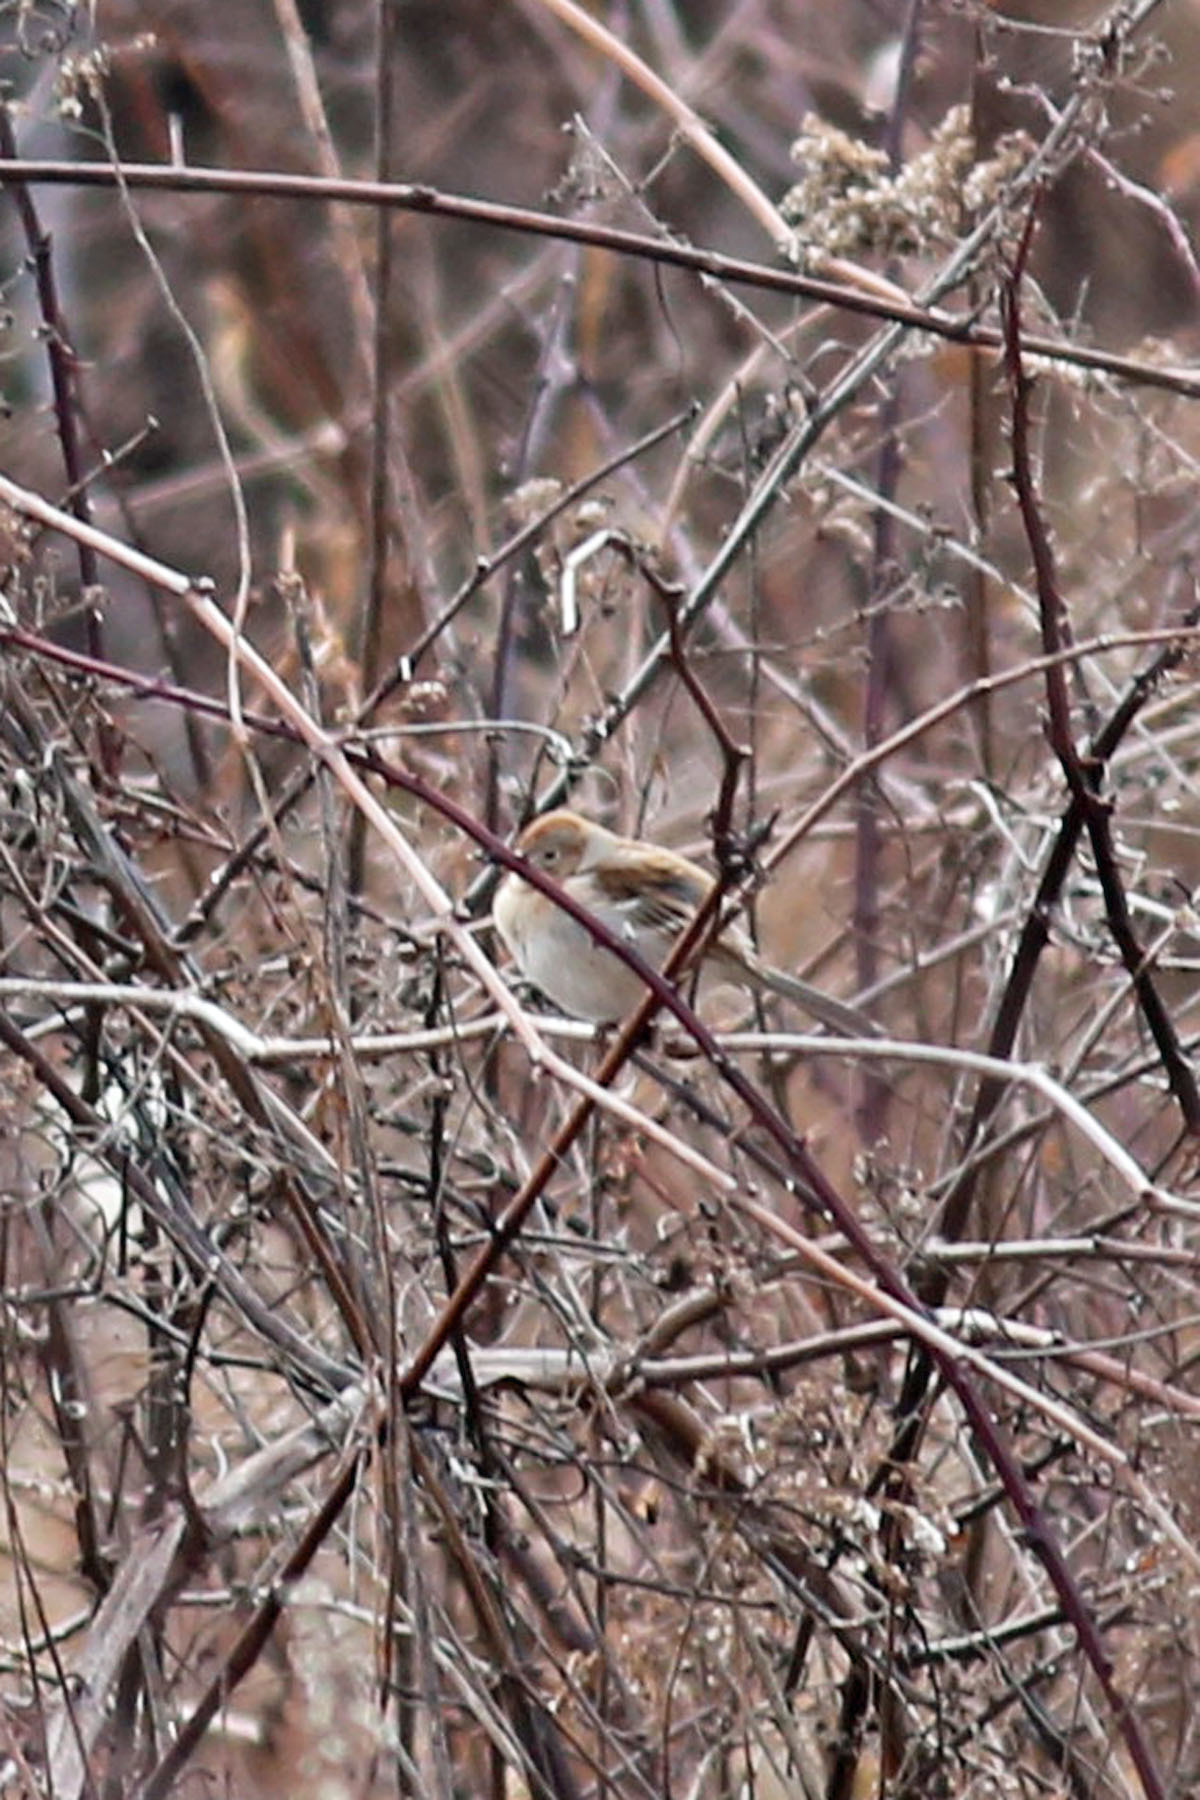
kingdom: Animalia
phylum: Chordata
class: Aves
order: Passeriformes
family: Passerellidae
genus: Spizella
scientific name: Spizella pusilla
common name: Field sparrow
